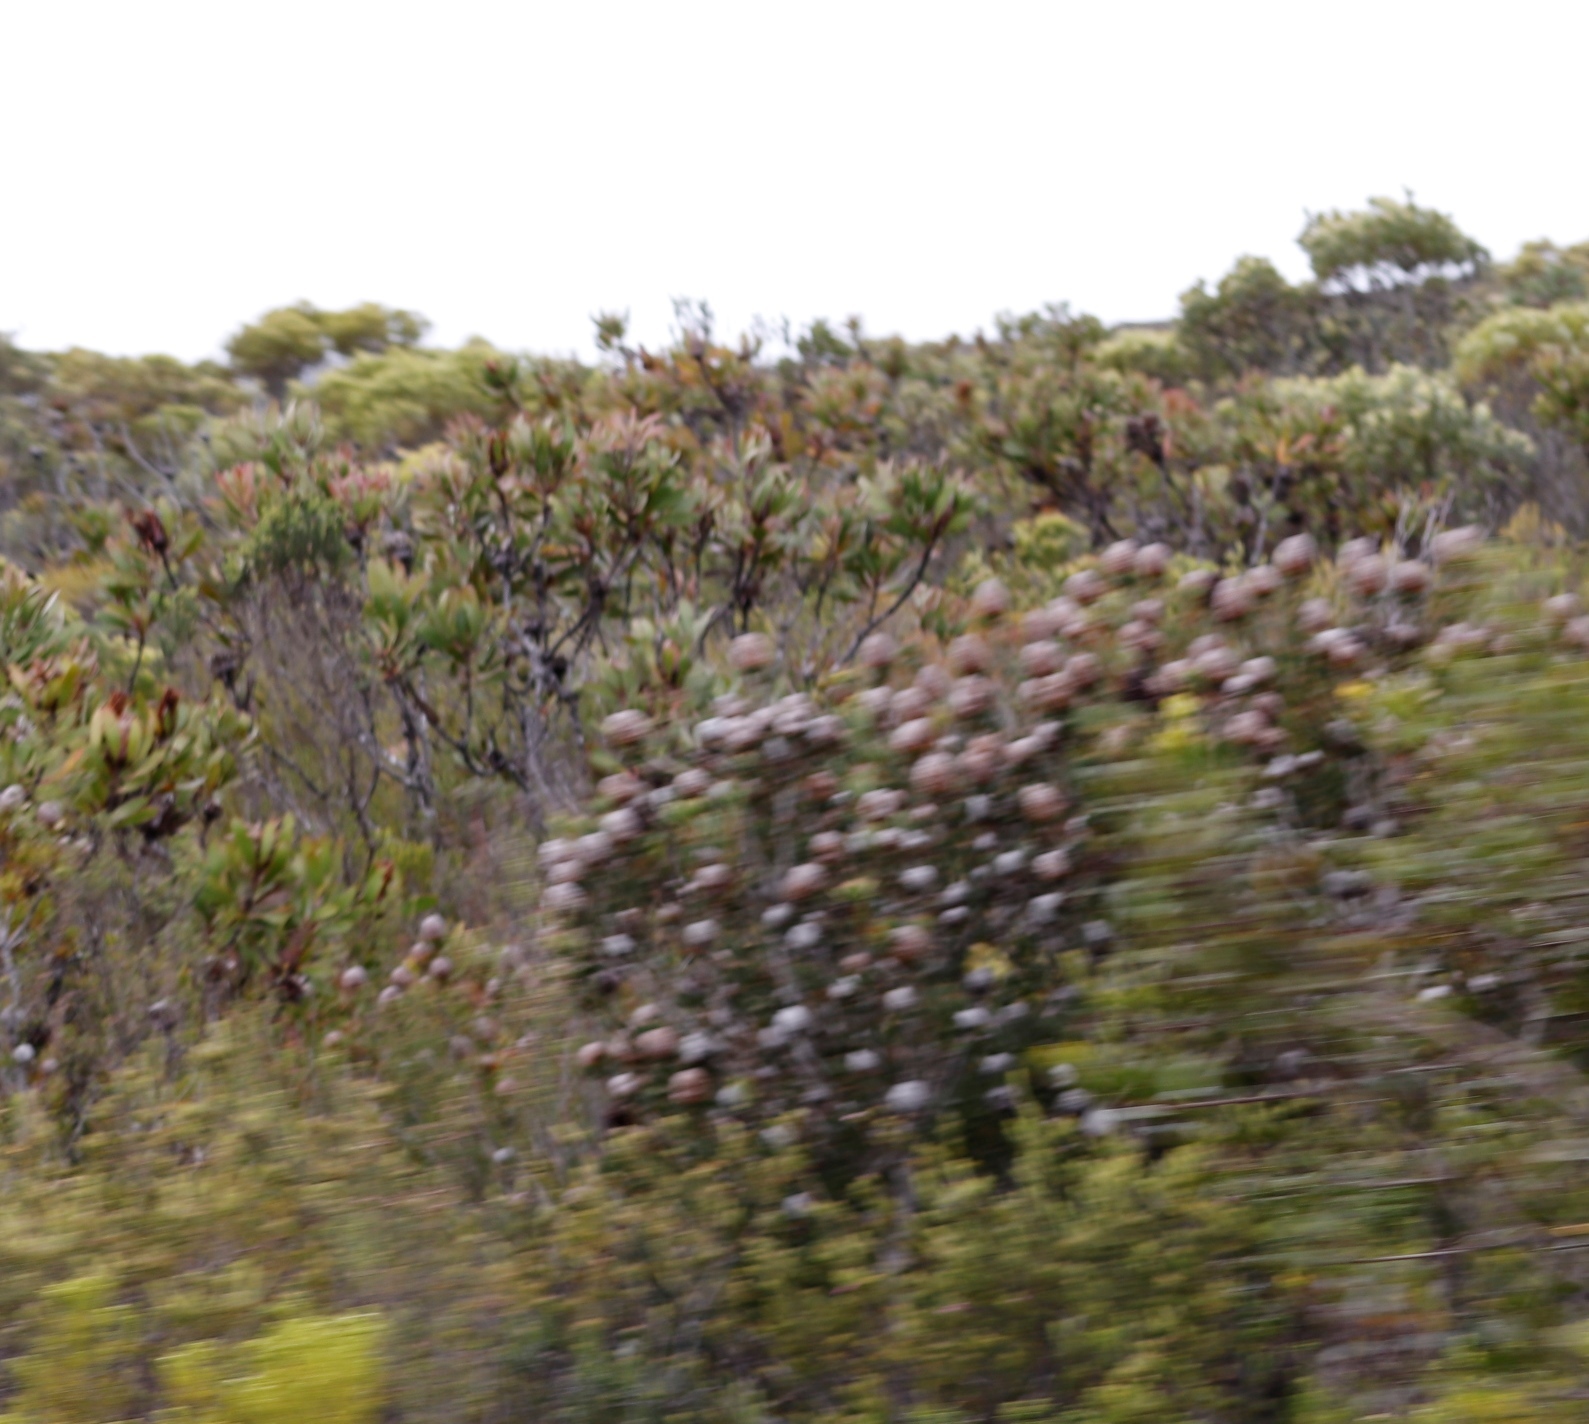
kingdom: Plantae
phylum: Tracheophyta
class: Magnoliopsida
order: Proteales
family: Proteaceae
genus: Leucadendron
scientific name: Leucadendron muirii
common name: Silver-ball conebush
